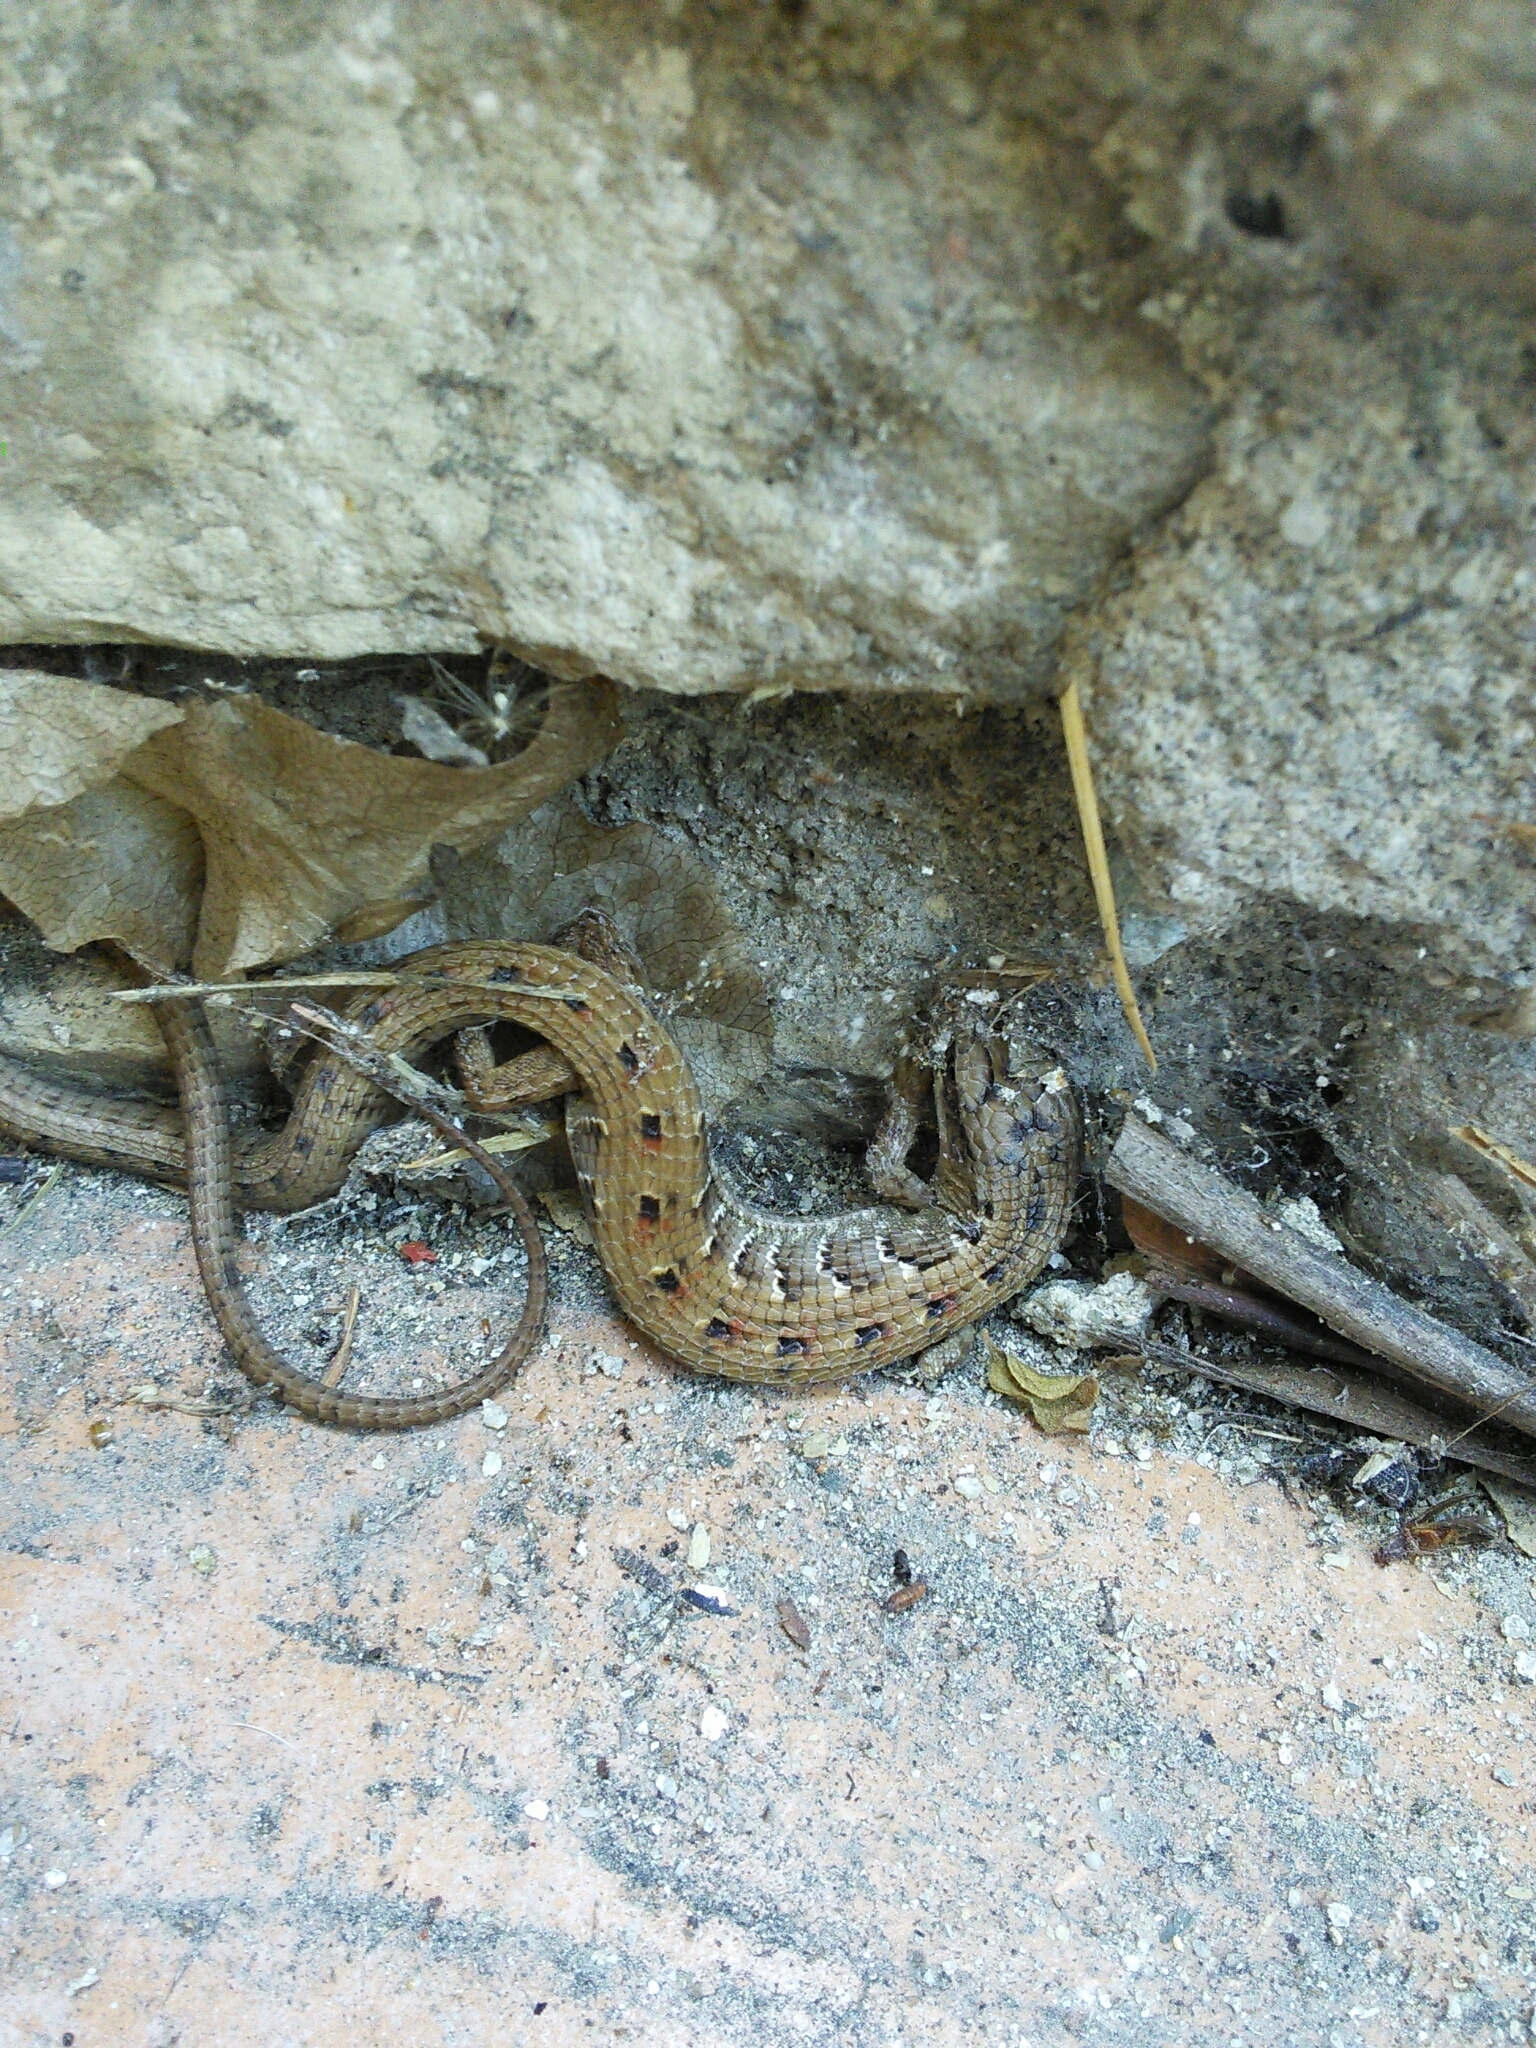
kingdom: Animalia
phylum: Chordata
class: Squamata
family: Anguidae
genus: Elgaria
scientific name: Elgaria multicarinata
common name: Southern alligator lizard
